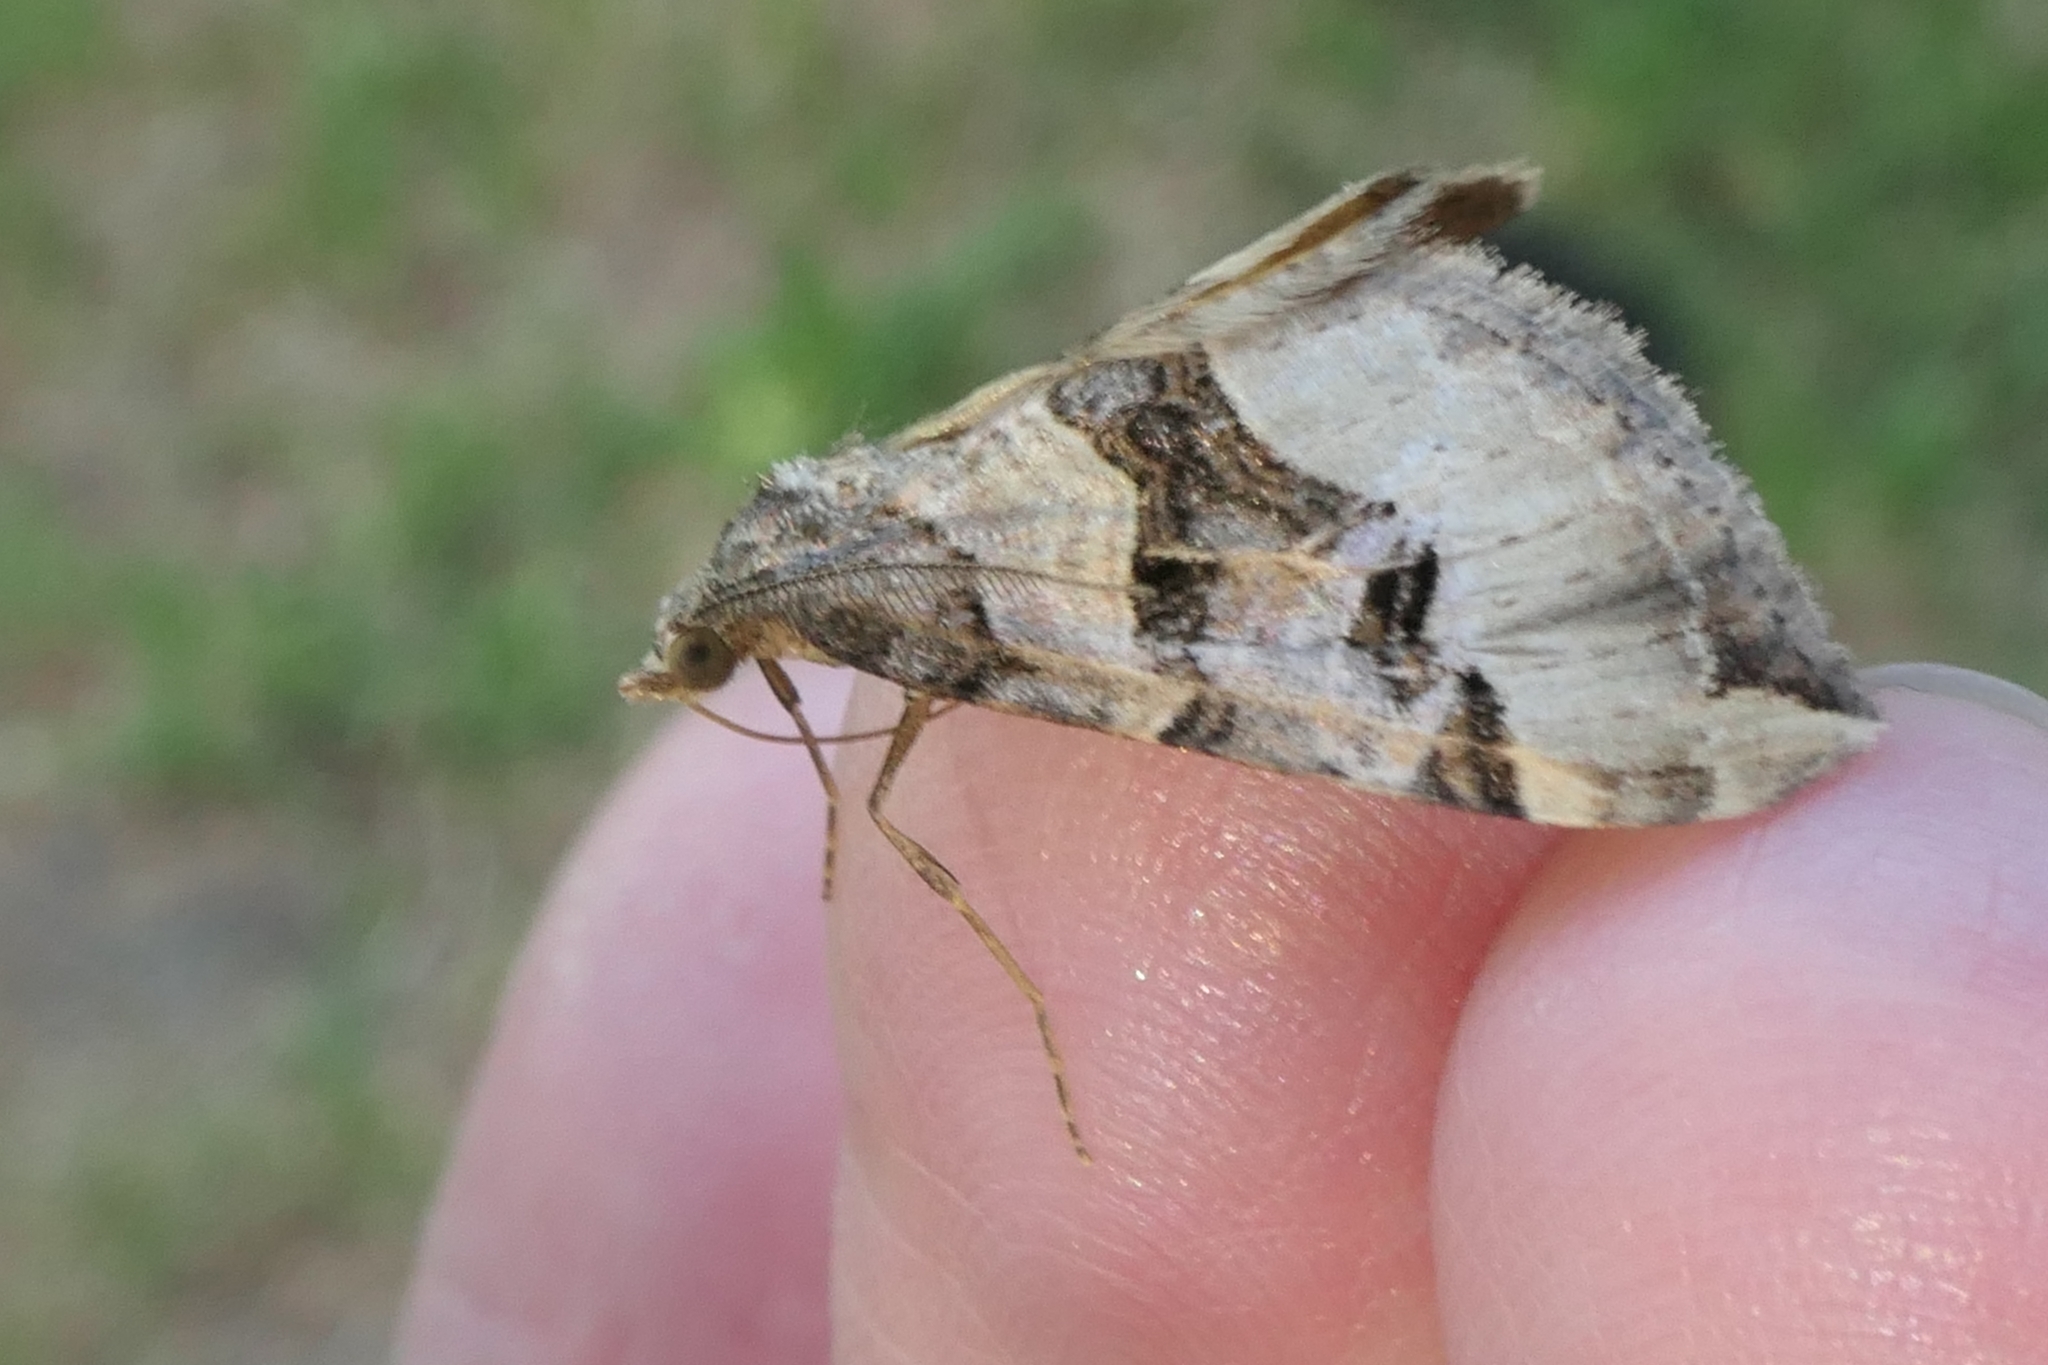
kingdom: Animalia
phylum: Arthropoda
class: Insecta
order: Lepidoptera
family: Geometridae
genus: Xanthorhoe
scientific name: Xanthorhoe semifissata
